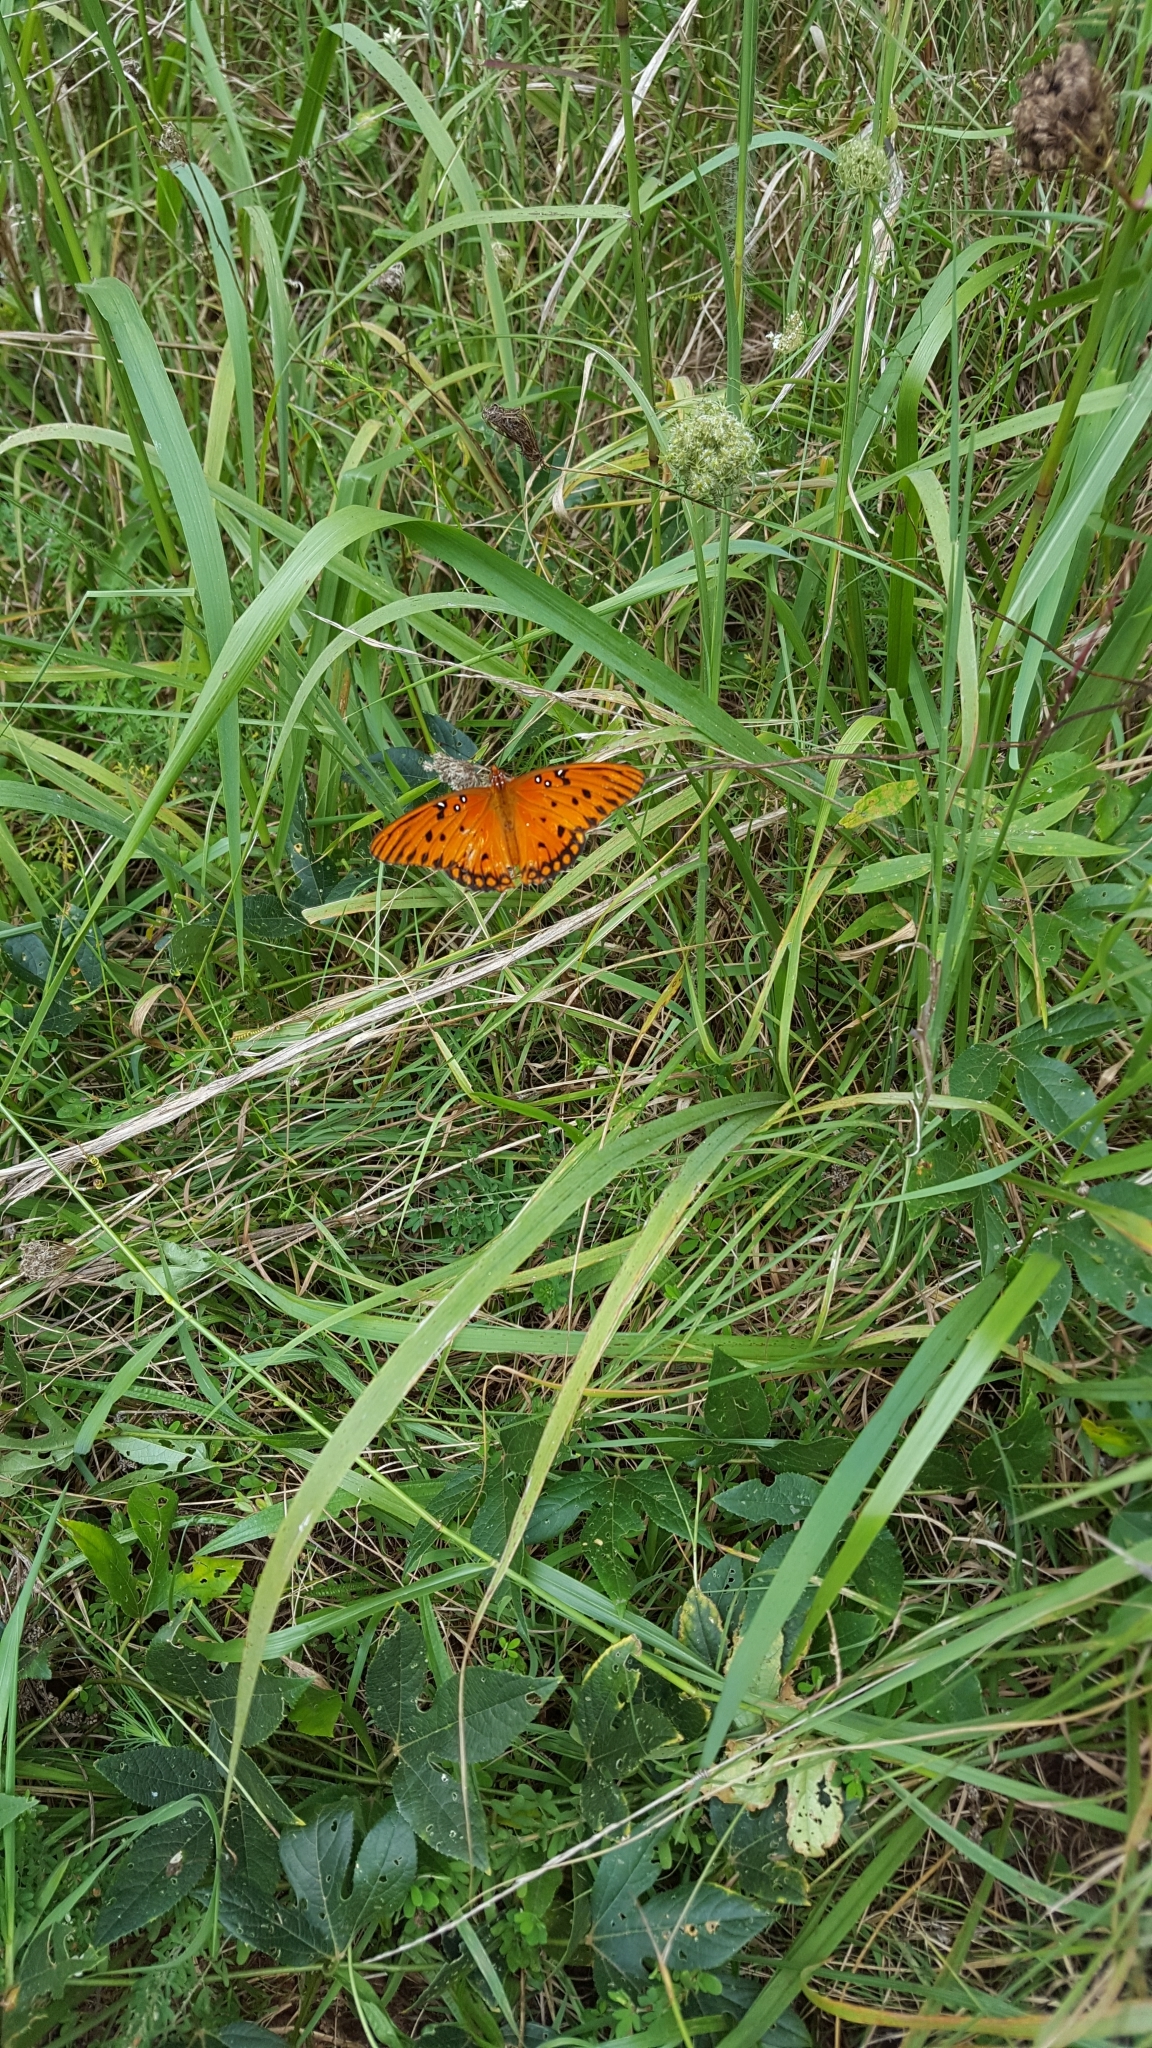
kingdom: Animalia
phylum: Arthropoda
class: Insecta
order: Lepidoptera
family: Nymphalidae
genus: Dione
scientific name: Dione vanillae
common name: Gulf fritillary
